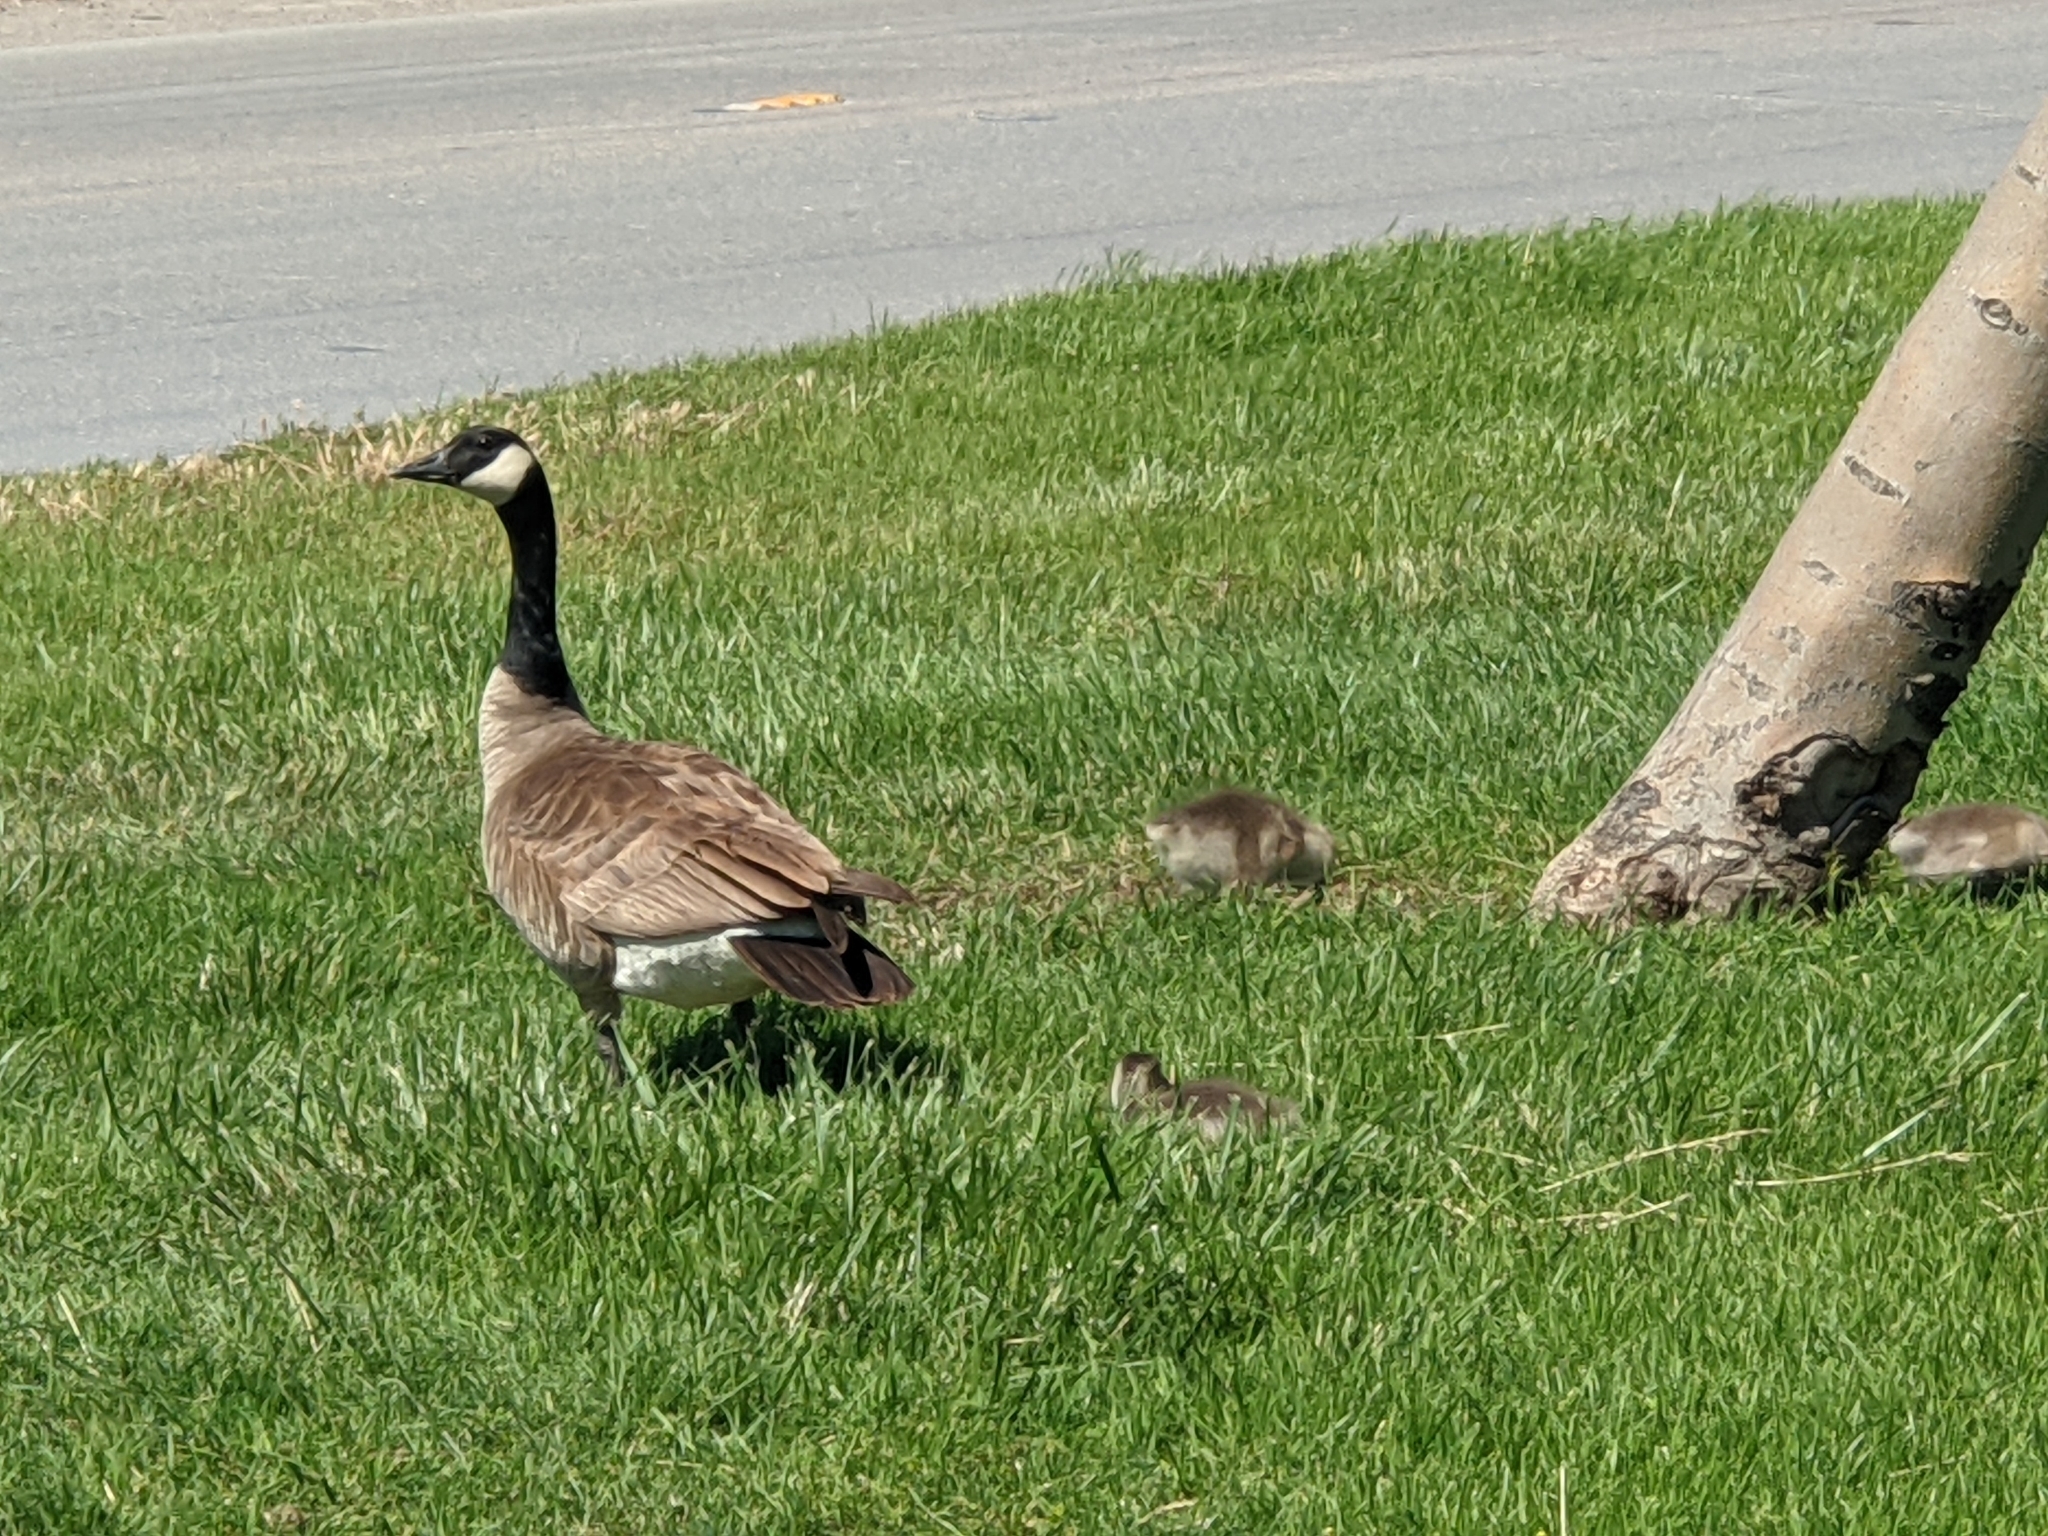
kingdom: Animalia
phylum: Chordata
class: Aves
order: Anseriformes
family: Anatidae
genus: Branta
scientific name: Branta canadensis
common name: Canada goose
